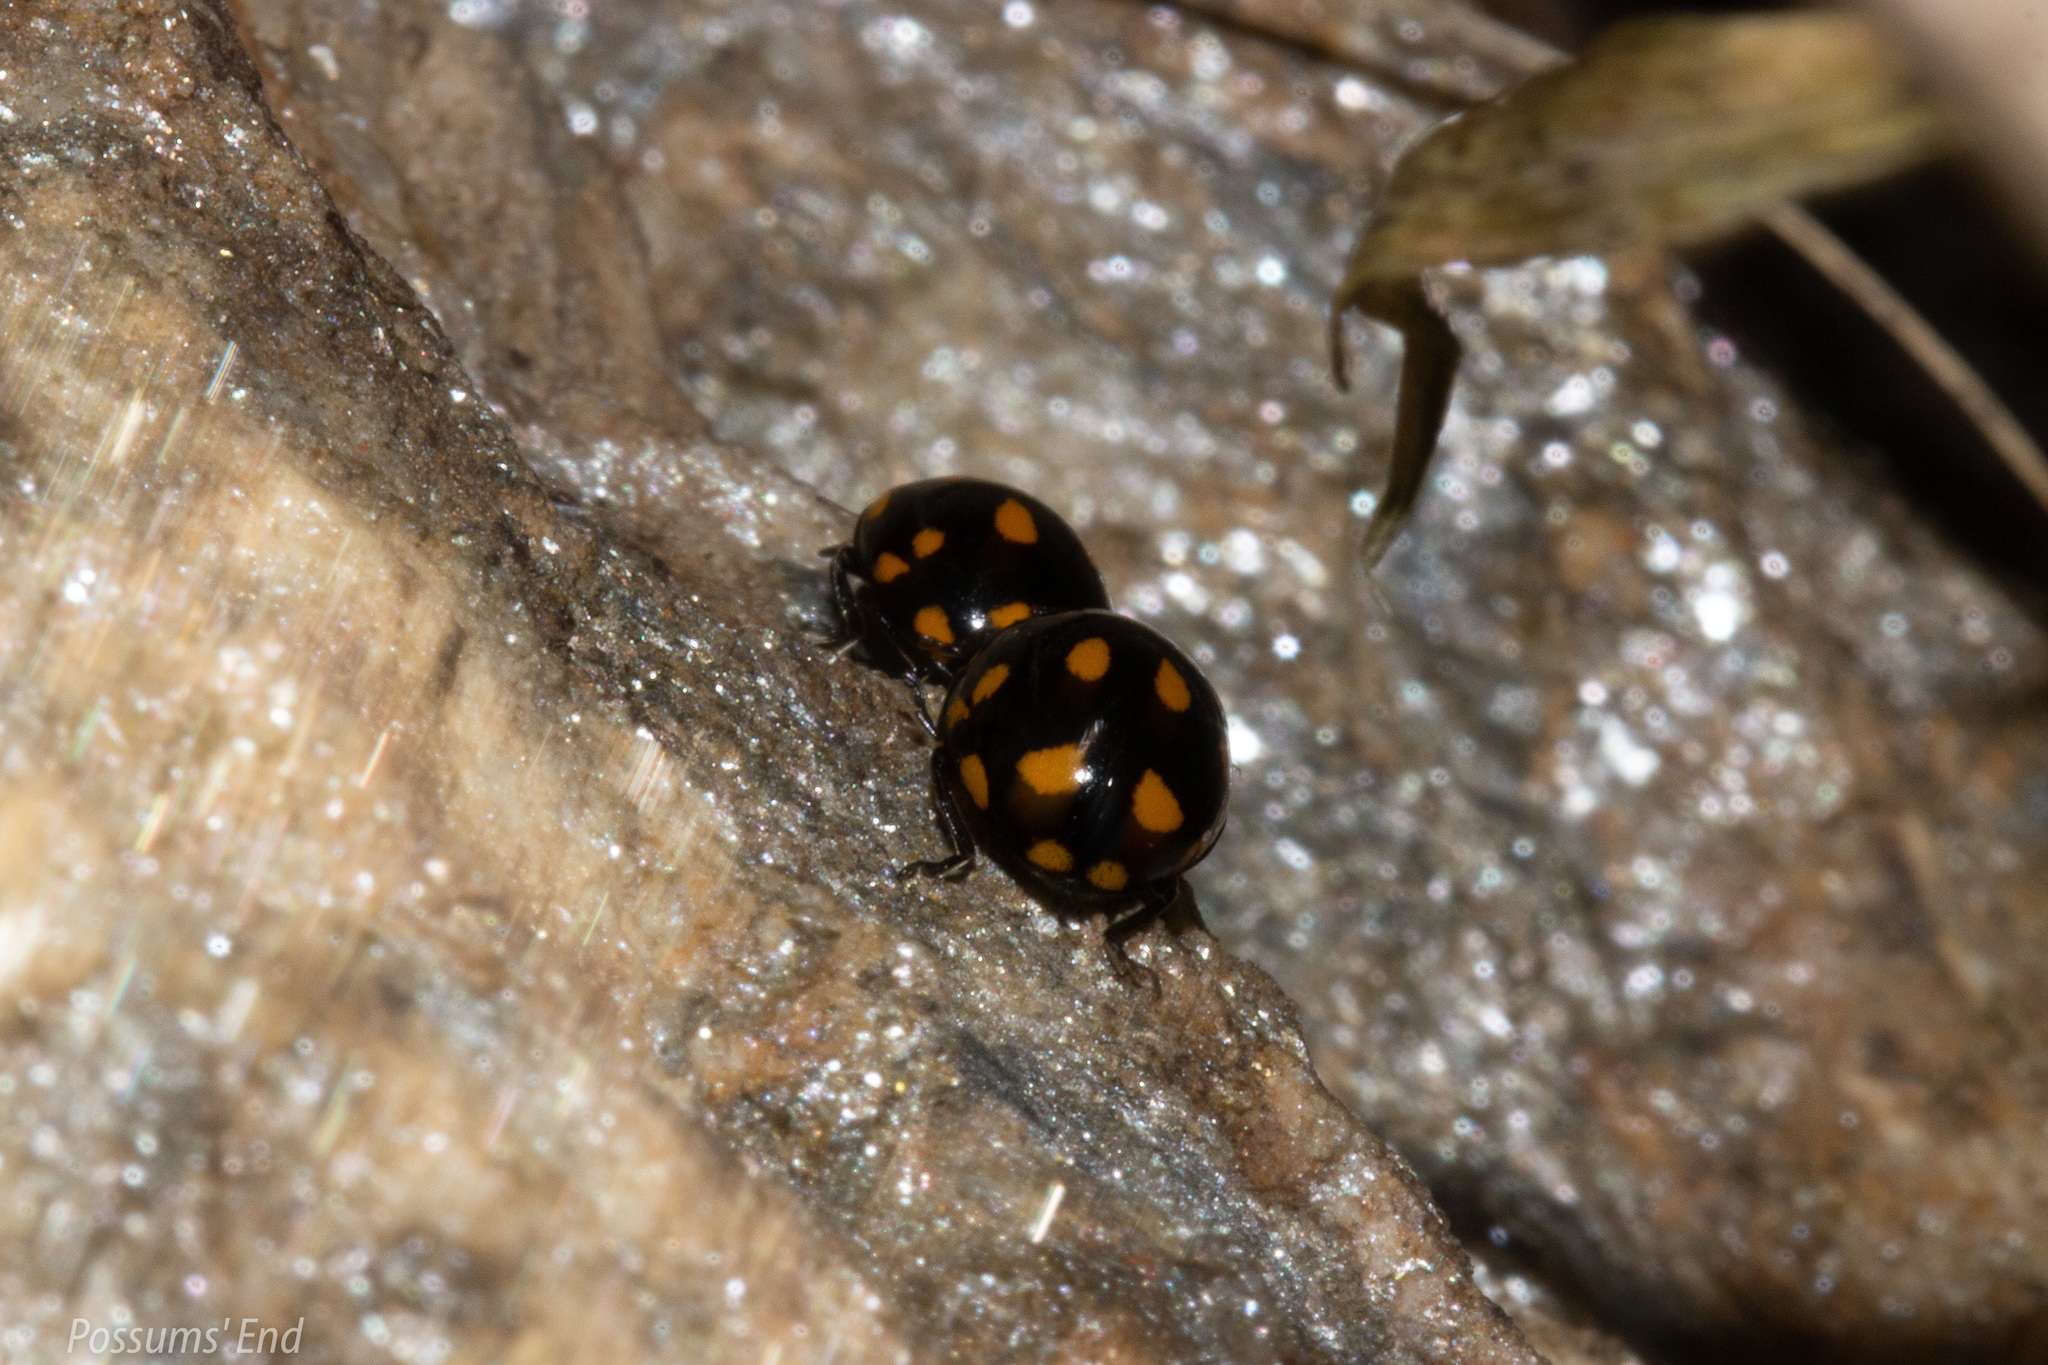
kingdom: Animalia
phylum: Arthropoda
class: Insecta
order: Coleoptera
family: Coccinellidae
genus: Coccinella
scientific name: Coccinella leonina
